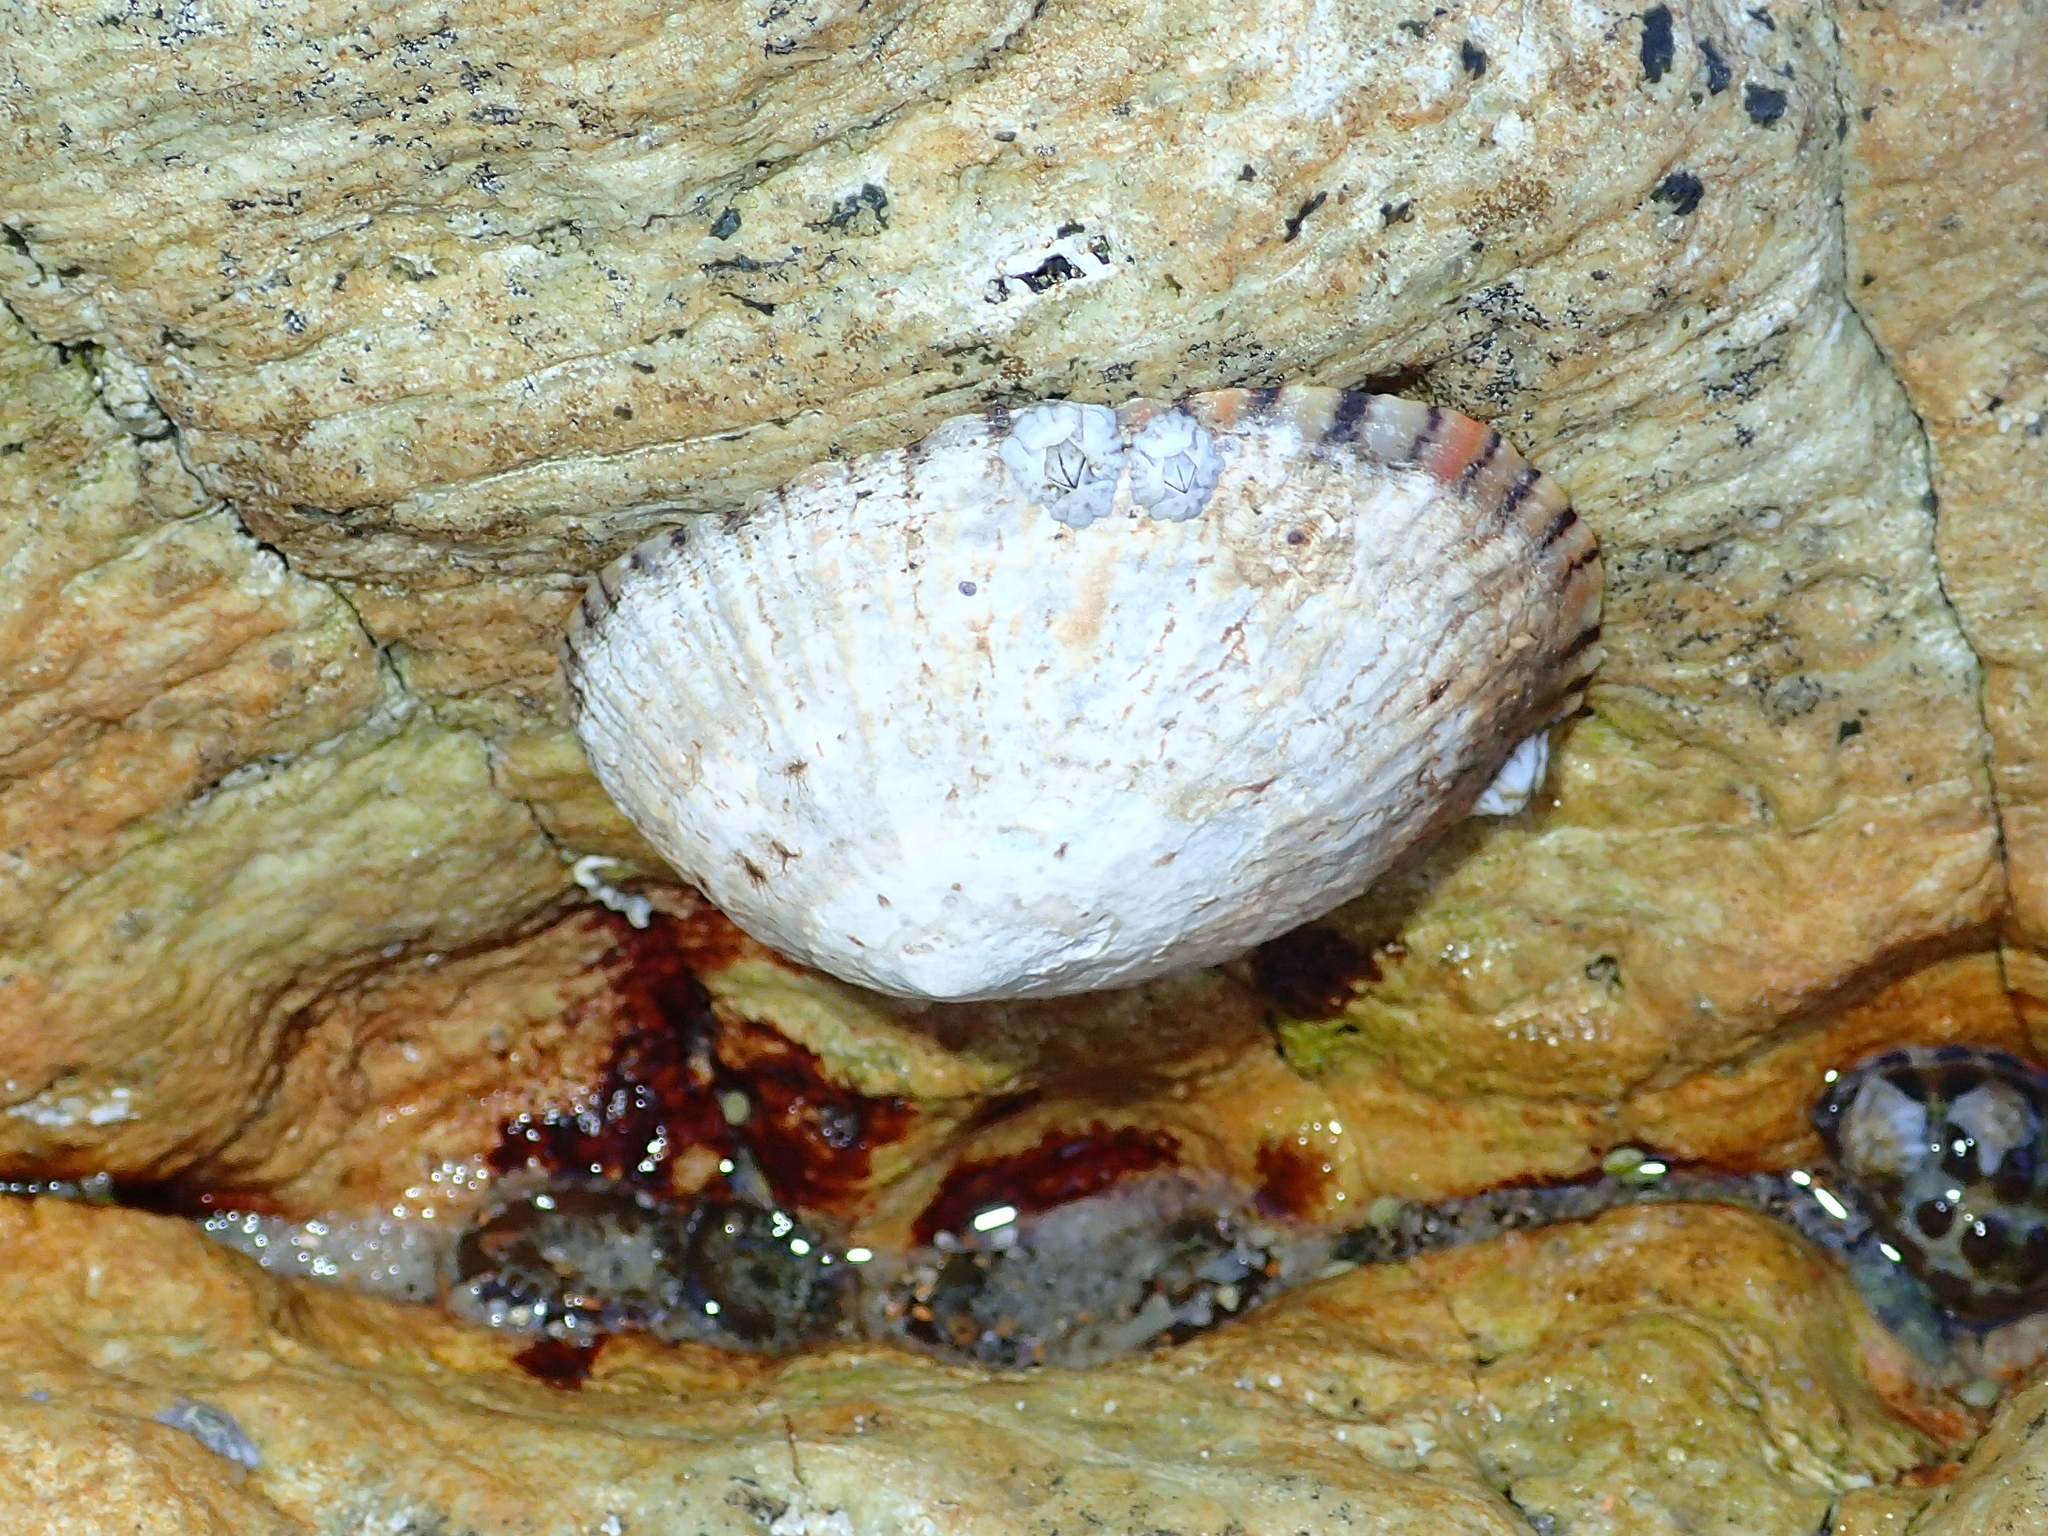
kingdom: Animalia
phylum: Mollusca
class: Gastropoda
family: Nacellidae
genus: Cellana
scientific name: Cellana tramoserica
